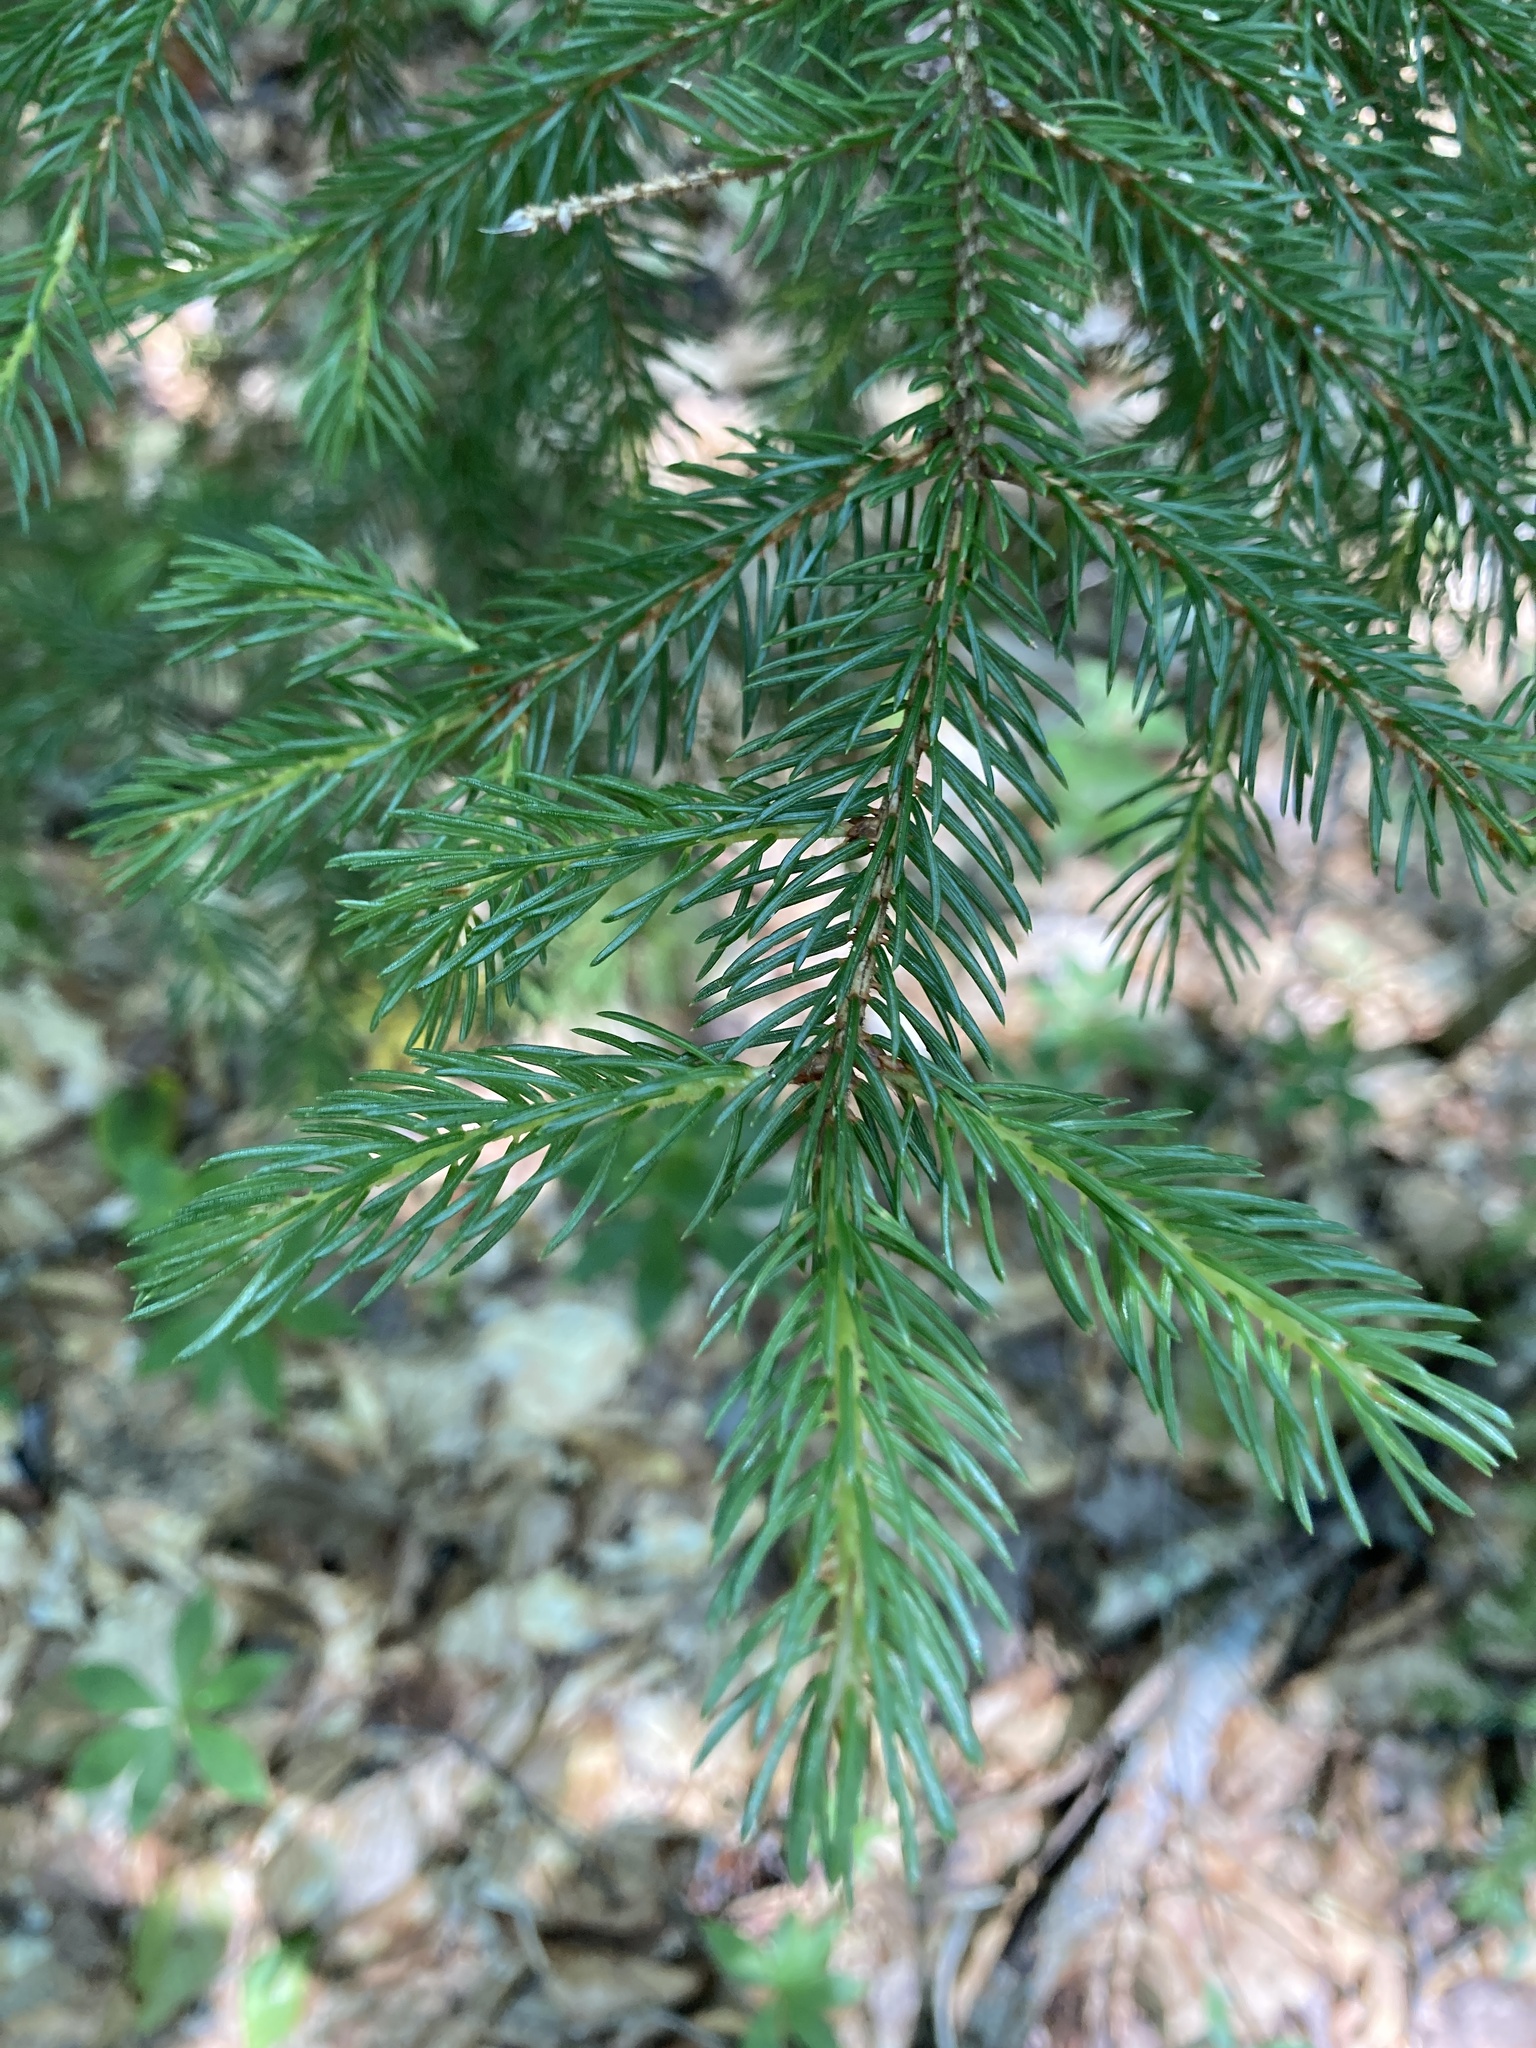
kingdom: Plantae
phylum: Tracheophyta
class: Pinopsida
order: Pinales
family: Pinaceae
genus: Picea
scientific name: Picea rubens
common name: Red spruce
